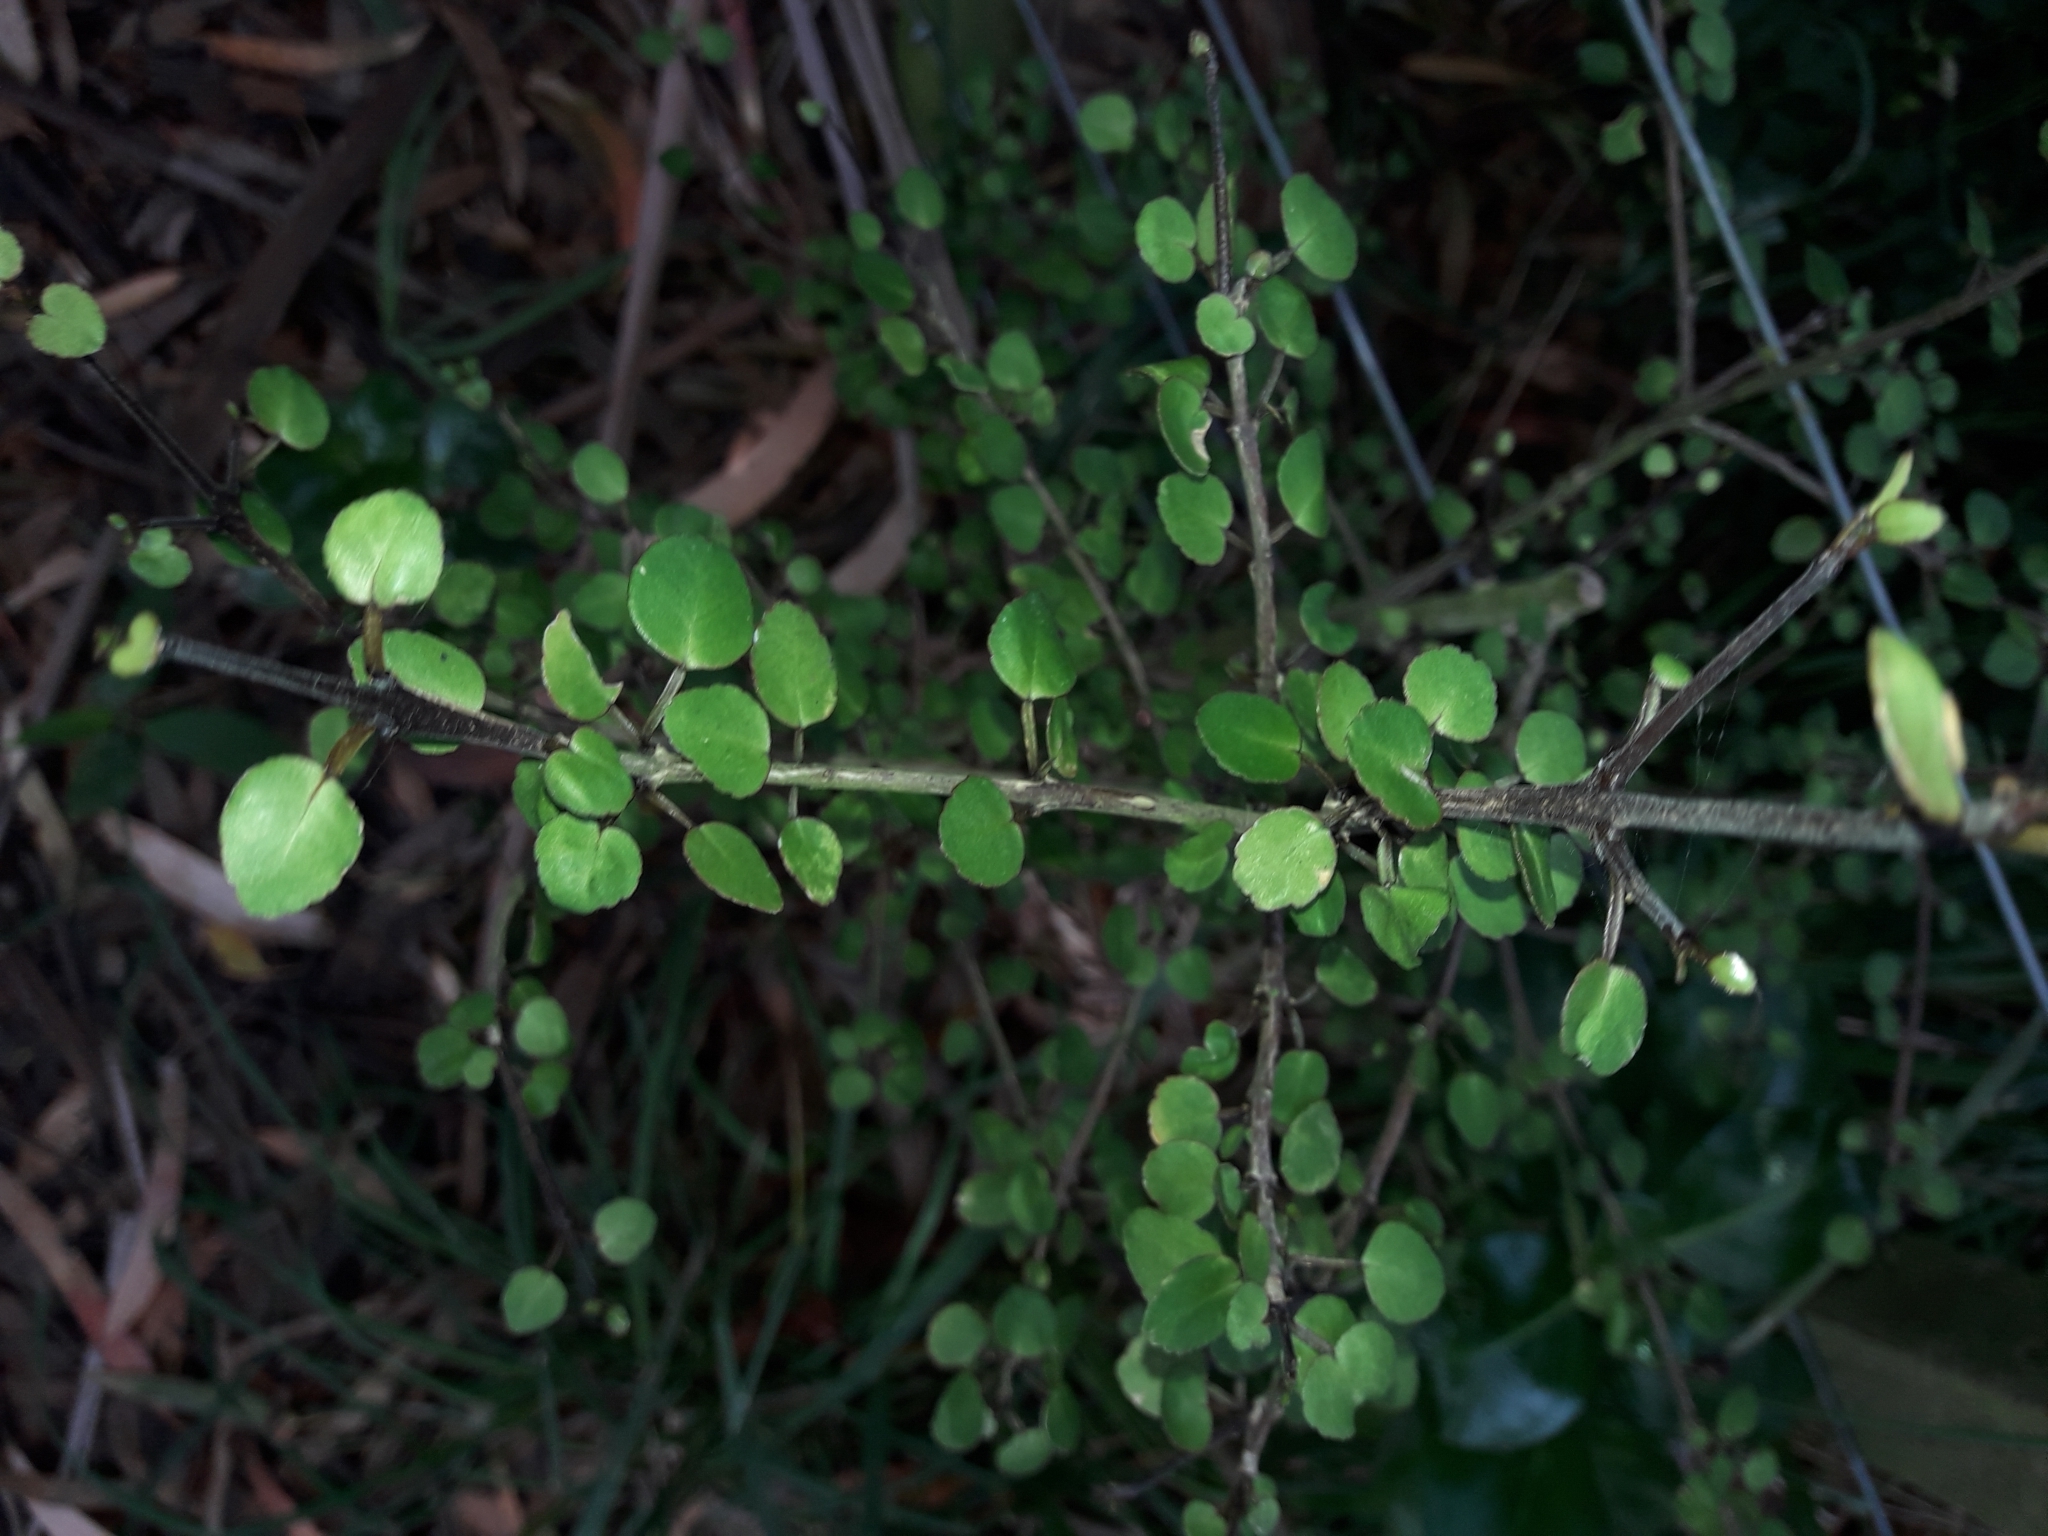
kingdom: Plantae
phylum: Tracheophyta
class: Magnoliopsida
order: Sapindales
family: Rutaceae
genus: Melicope
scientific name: Melicope simplex
